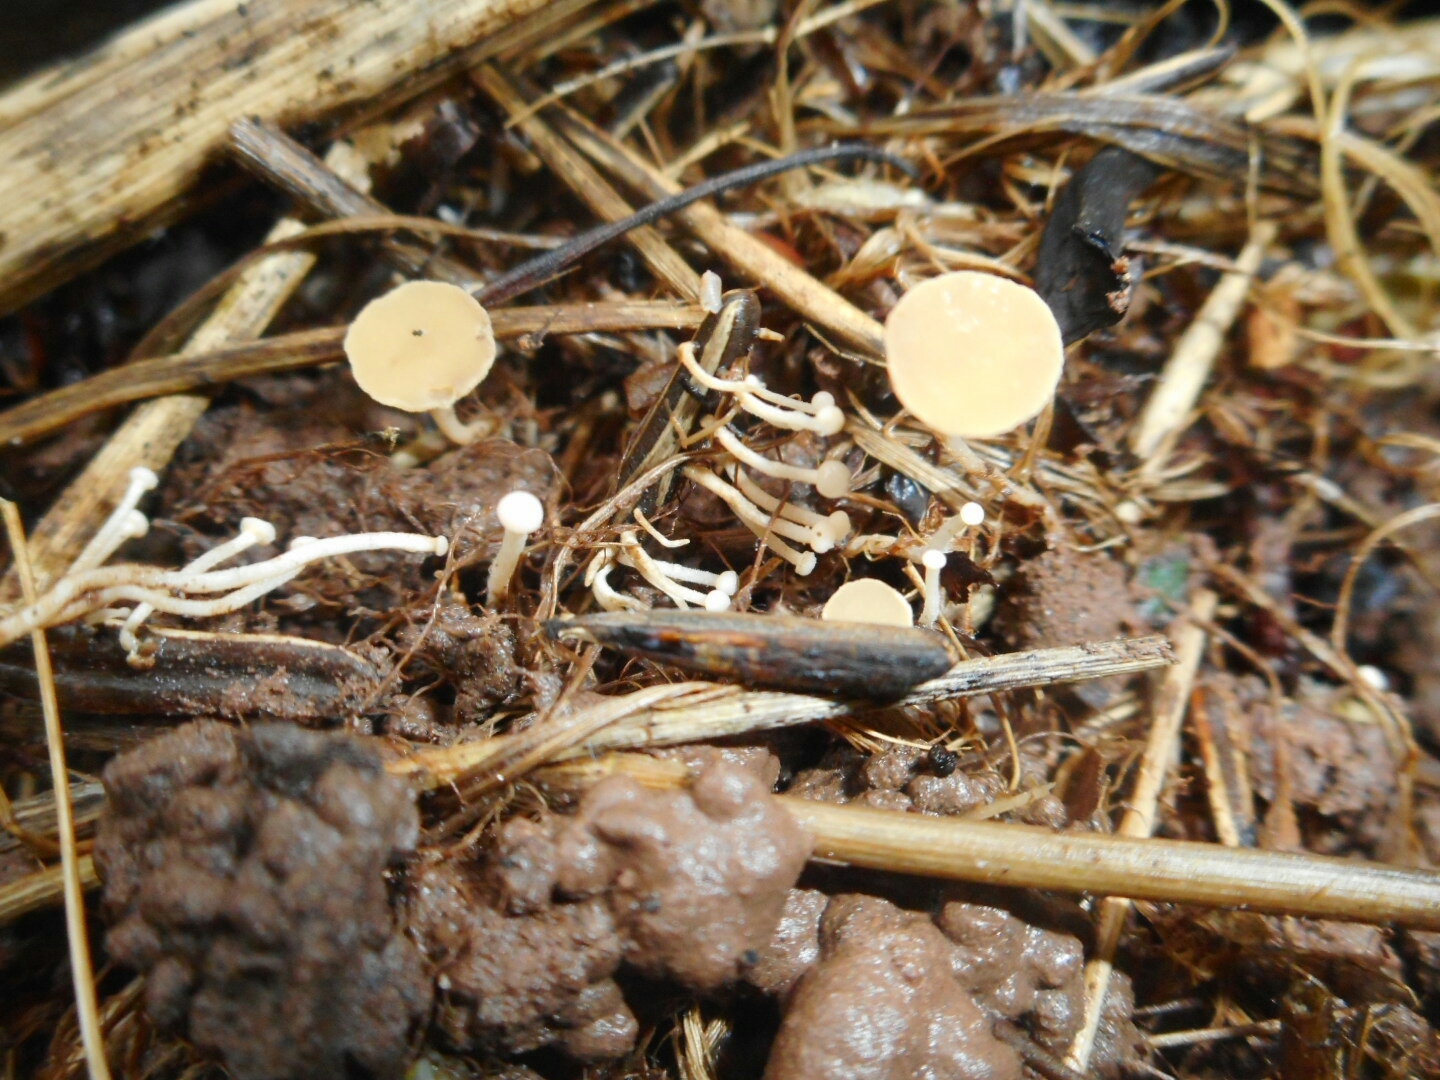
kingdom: Fungi
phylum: Ascomycota
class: Leotiomycetes
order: Helotiales
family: Helotiaceae
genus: Symphyosirinia
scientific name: Symphyosirinia chaerophylli
